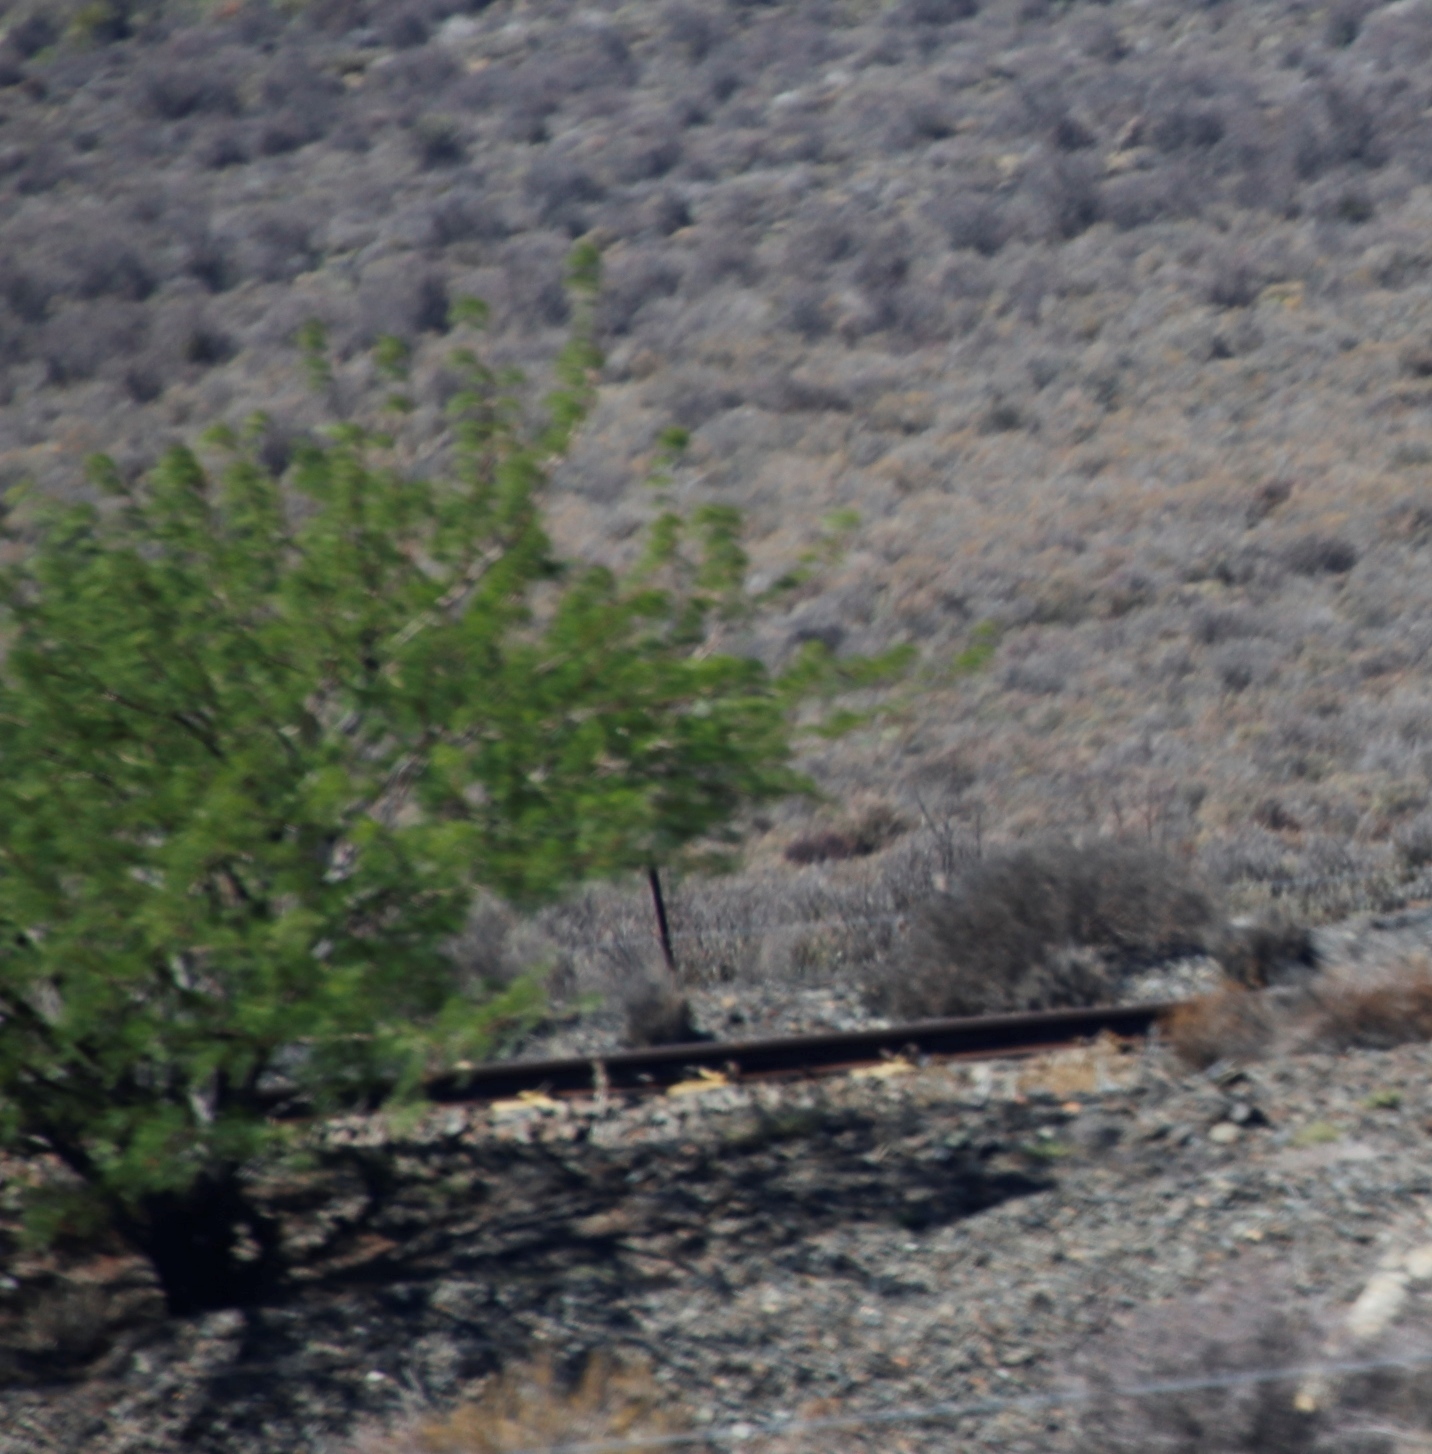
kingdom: Plantae
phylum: Tracheophyta
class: Magnoliopsida
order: Fabales
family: Fabaceae
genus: Vachellia
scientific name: Vachellia karroo
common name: Sweet thorn
